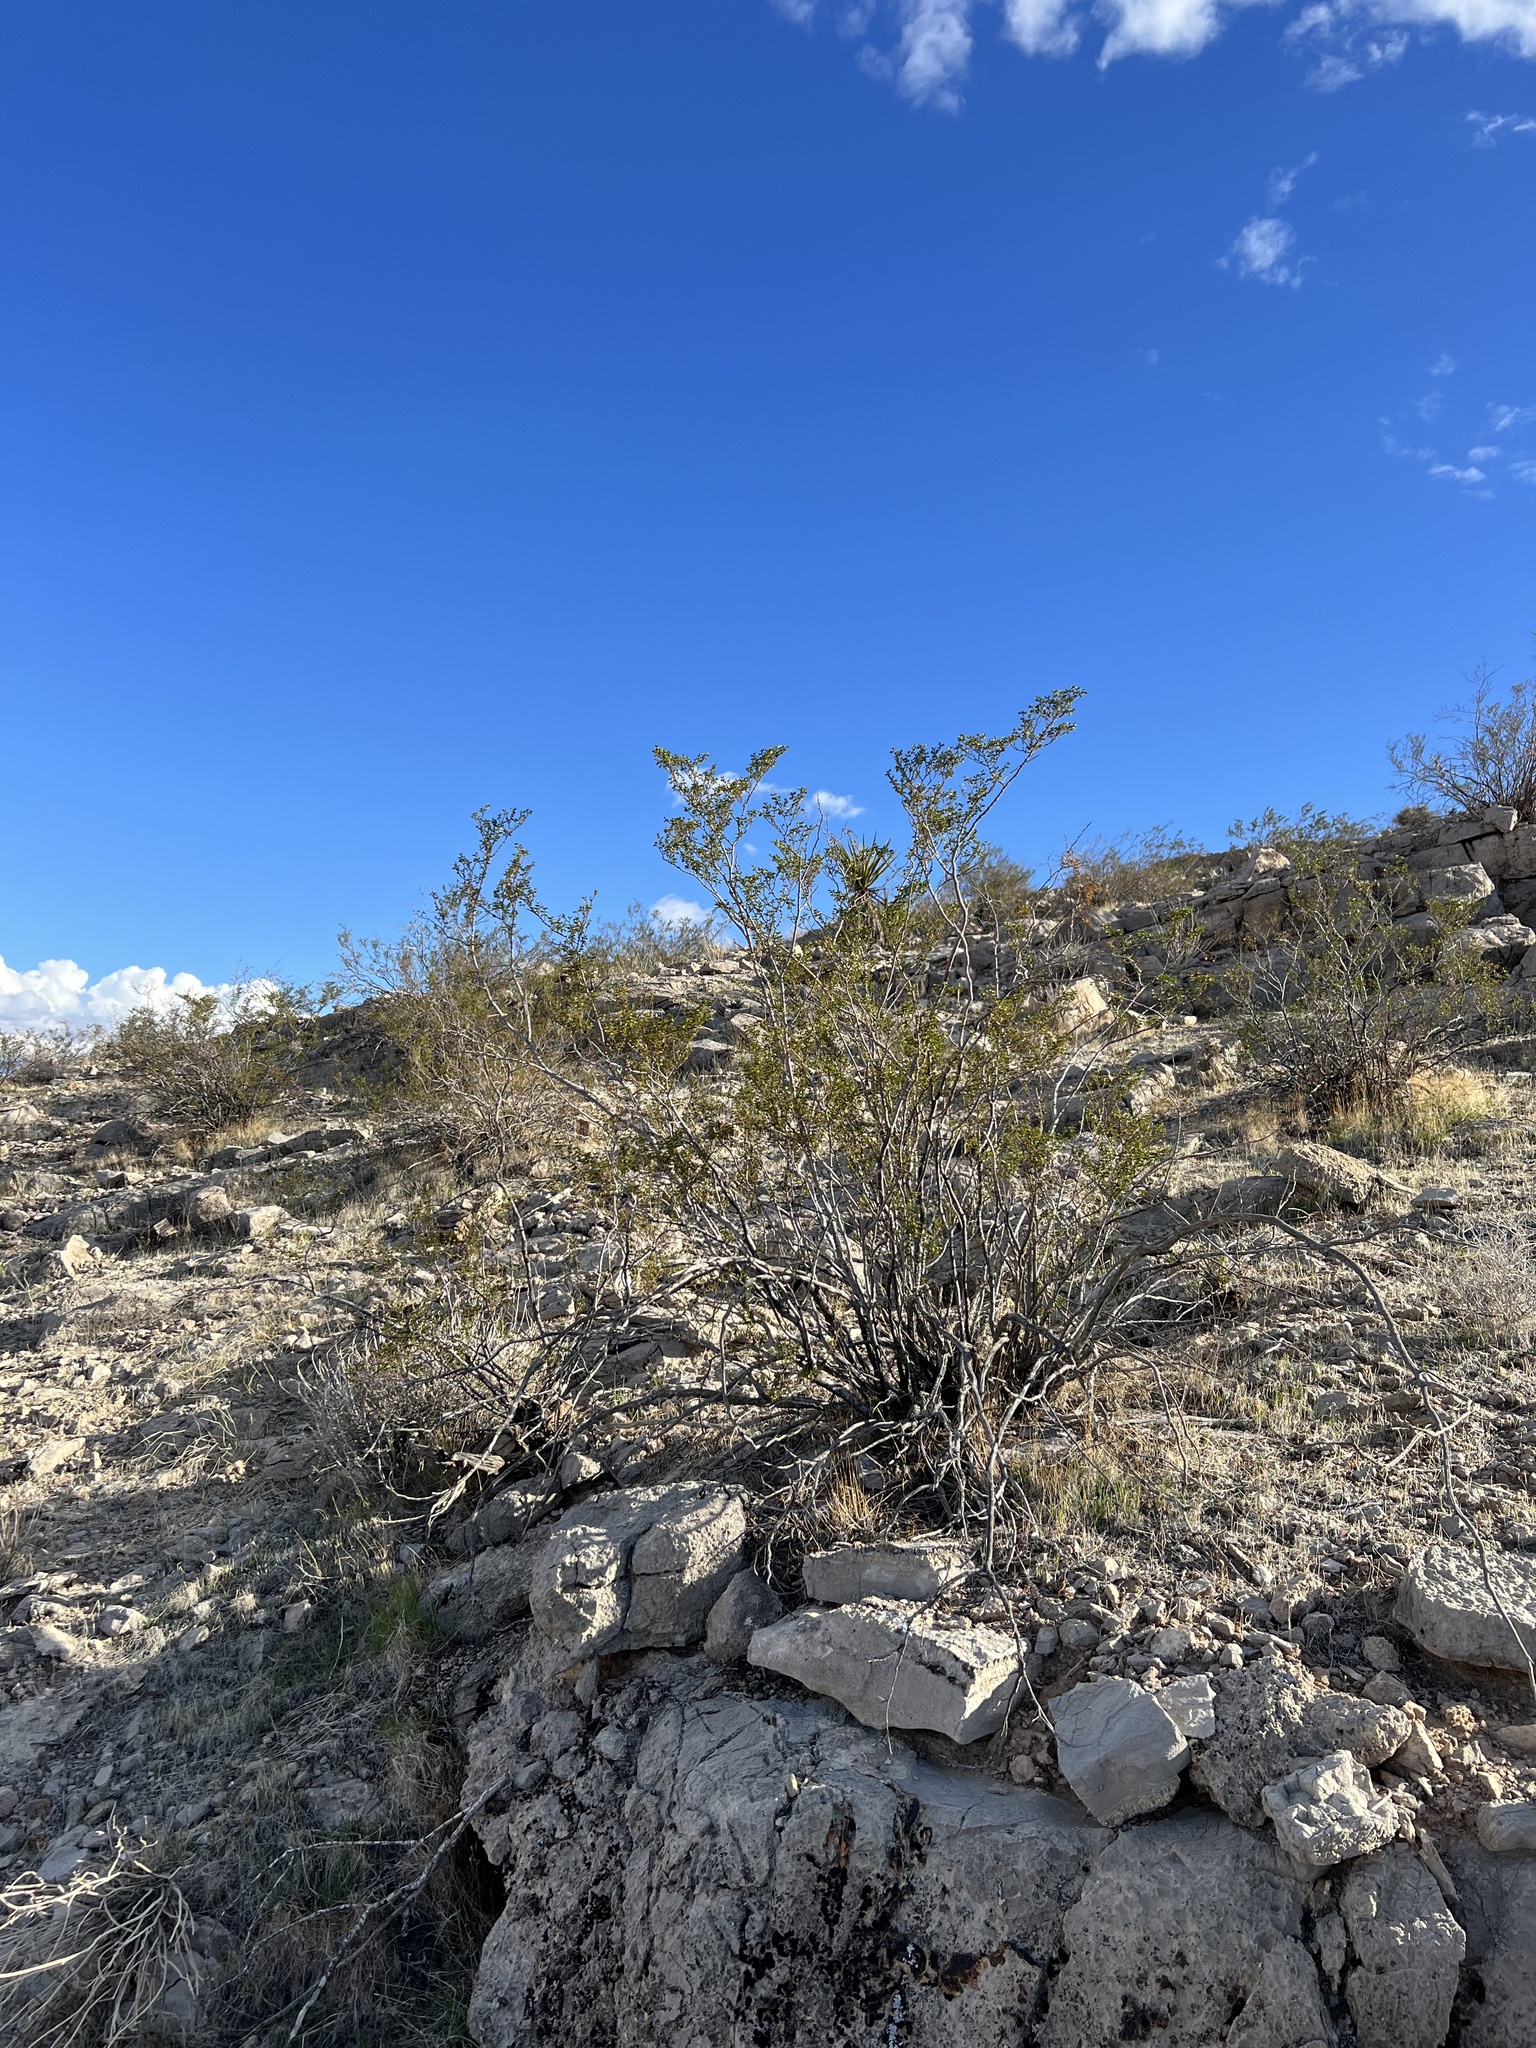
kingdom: Plantae
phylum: Tracheophyta
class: Magnoliopsida
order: Zygophyllales
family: Zygophyllaceae
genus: Larrea
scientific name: Larrea tridentata
